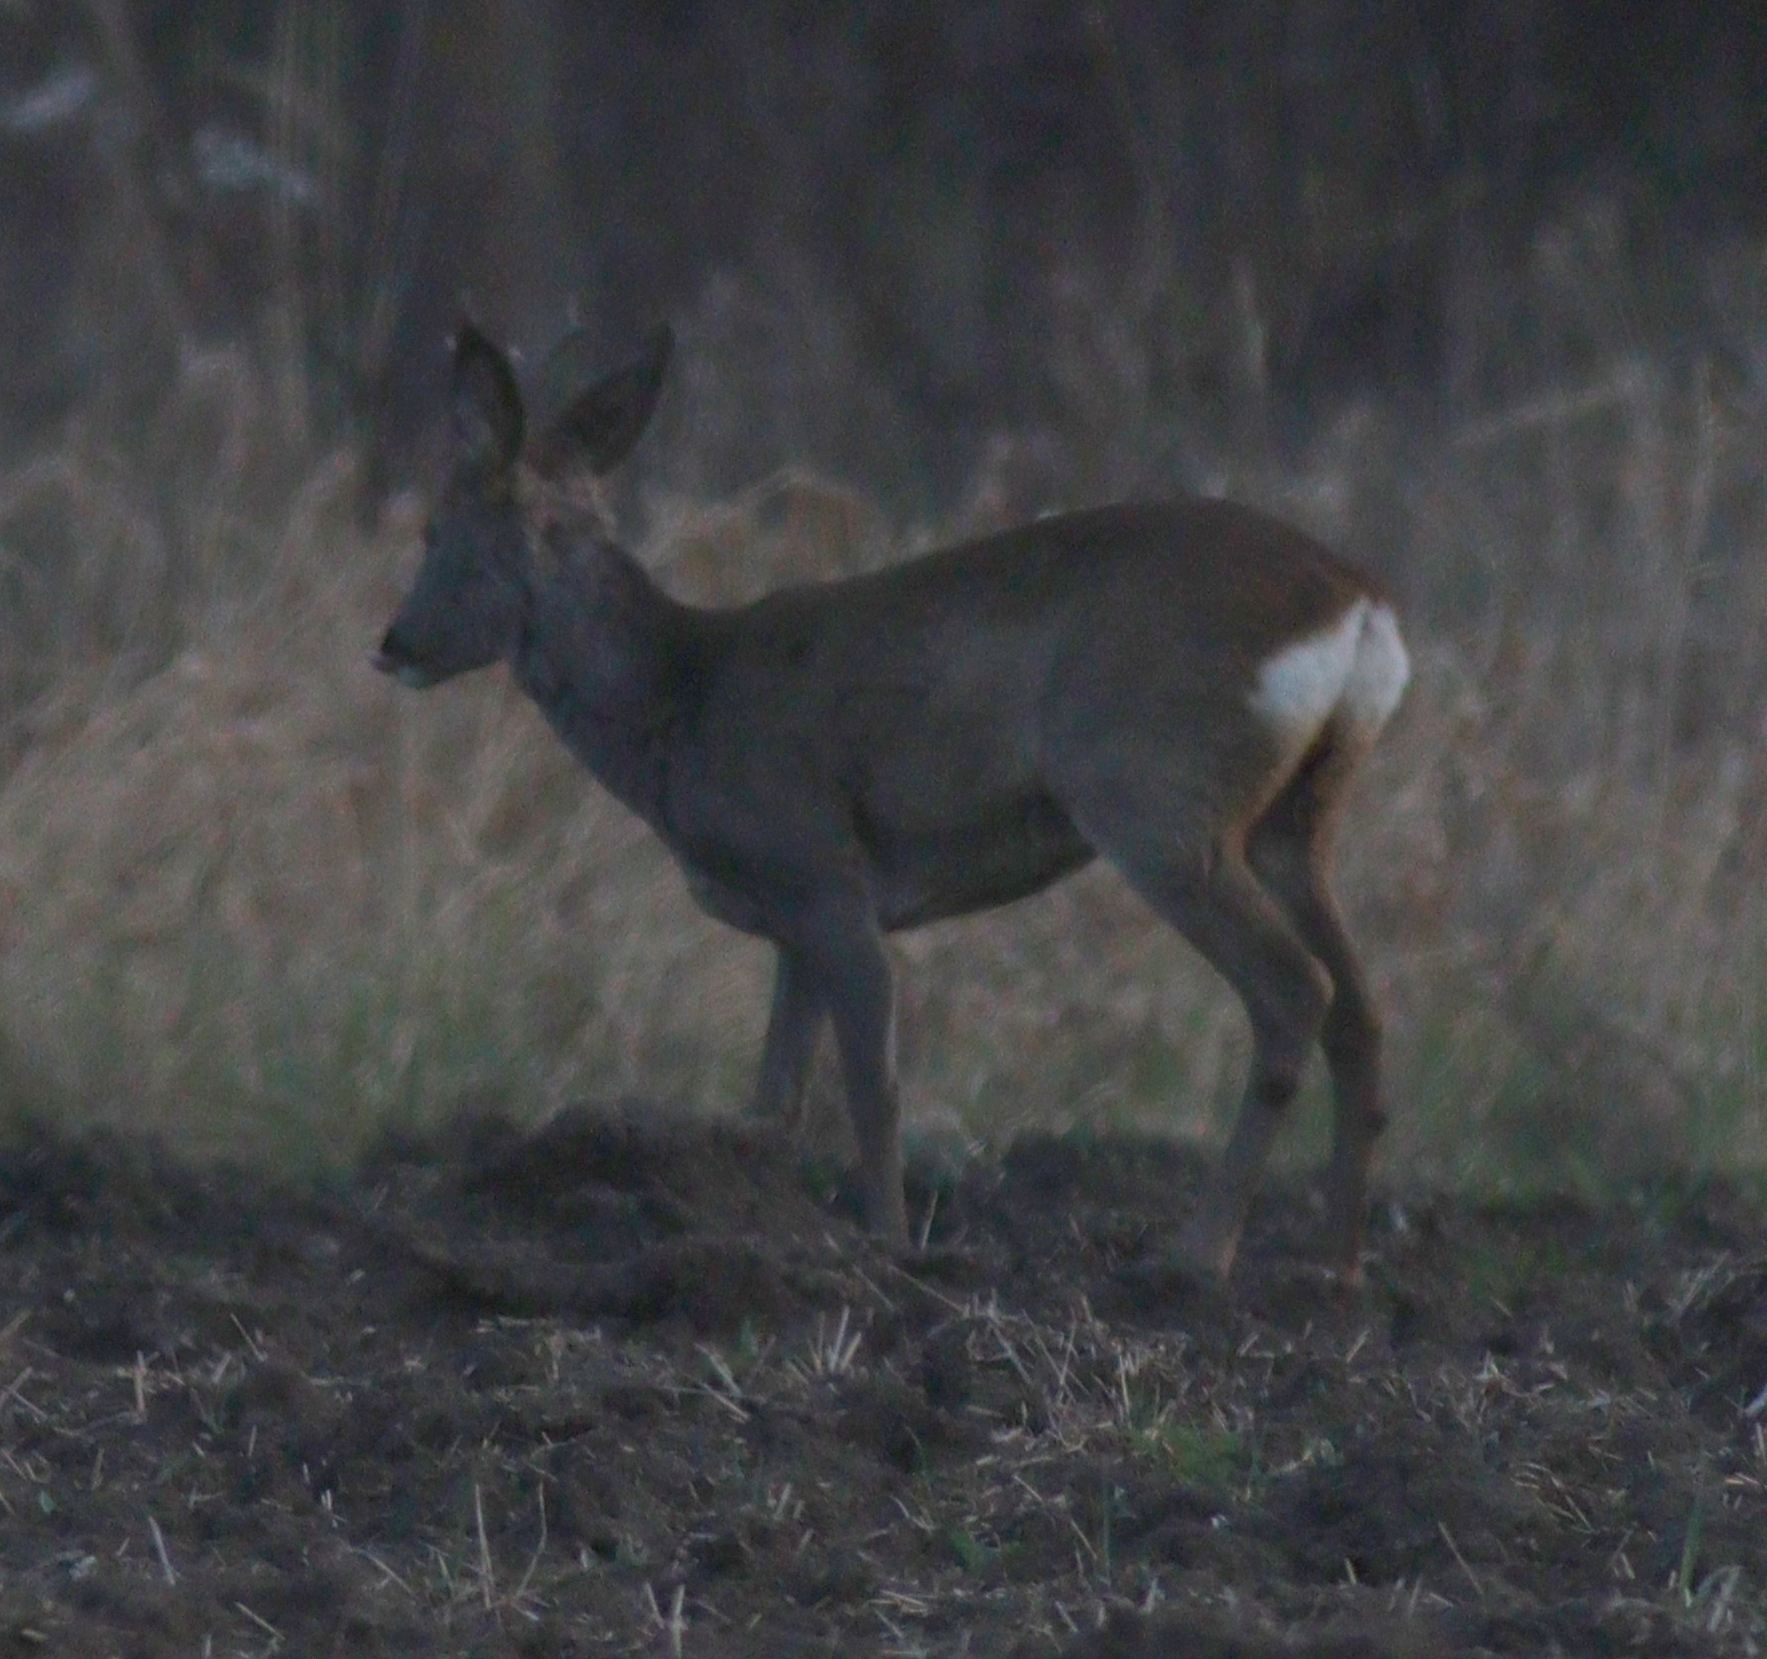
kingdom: Animalia
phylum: Chordata
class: Mammalia
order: Artiodactyla
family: Cervidae
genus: Capreolus
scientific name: Capreolus capreolus
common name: Western roe deer
